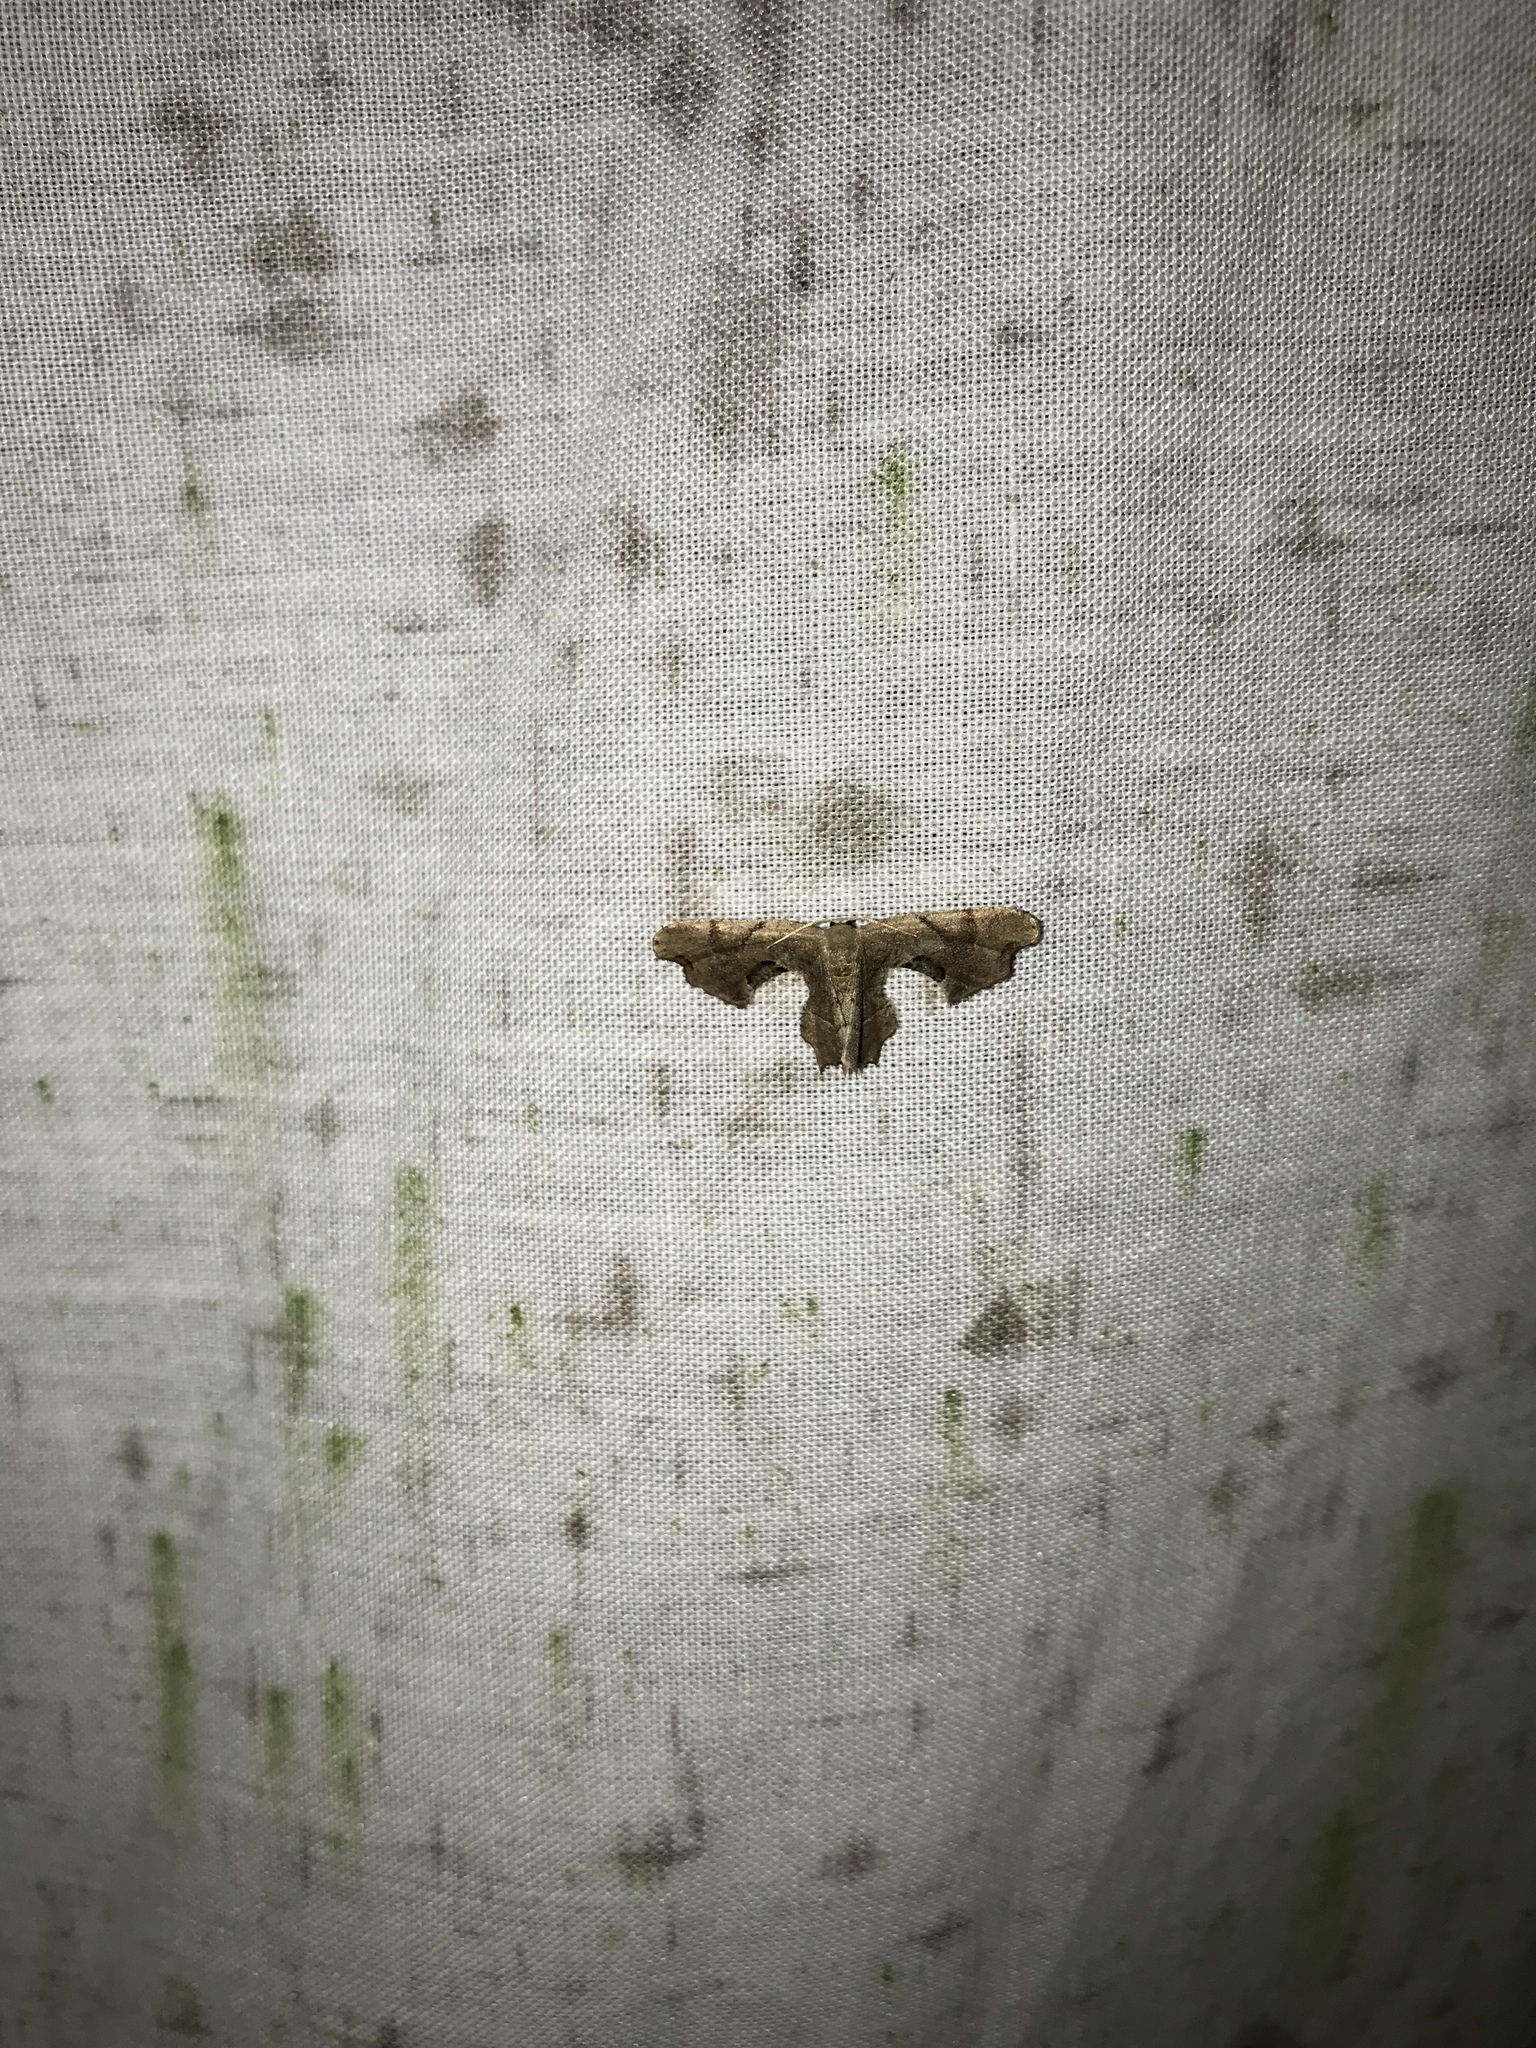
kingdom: Animalia
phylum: Arthropoda
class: Insecta
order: Lepidoptera
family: Uraniidae
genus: Epiplema
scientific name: Epiplema Calledapteryx dryopterata
